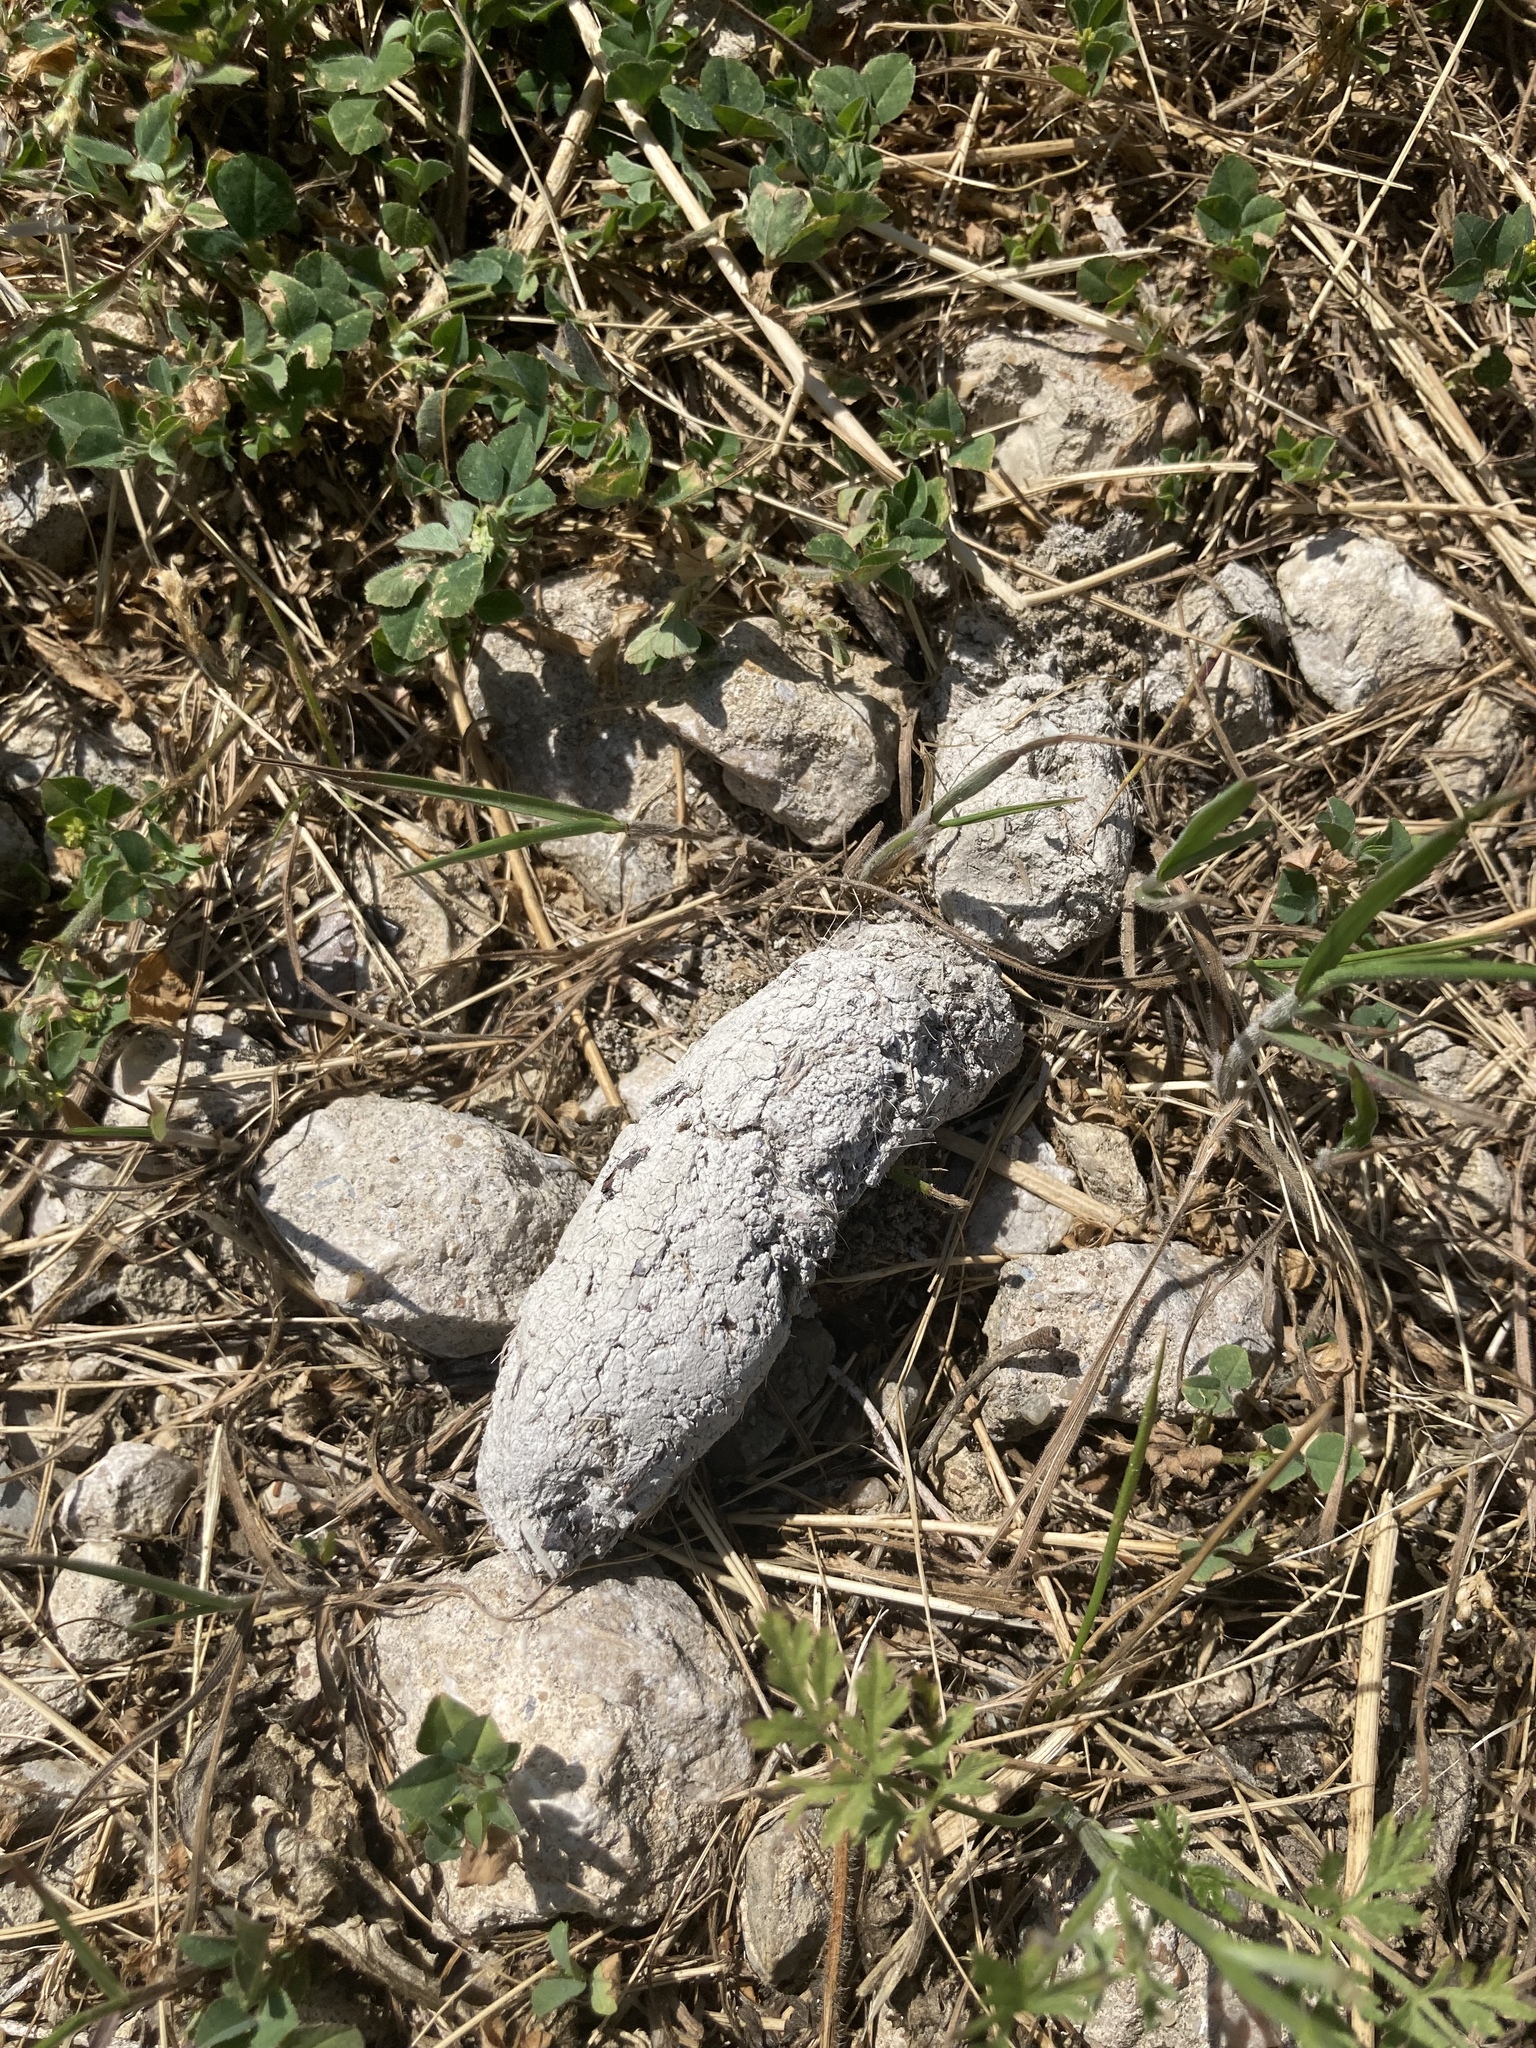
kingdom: Animalia
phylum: Chordata
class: Mammalia
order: Carnivora
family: Felidae
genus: Lynx
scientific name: Lynx rufus
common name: Bobcat
